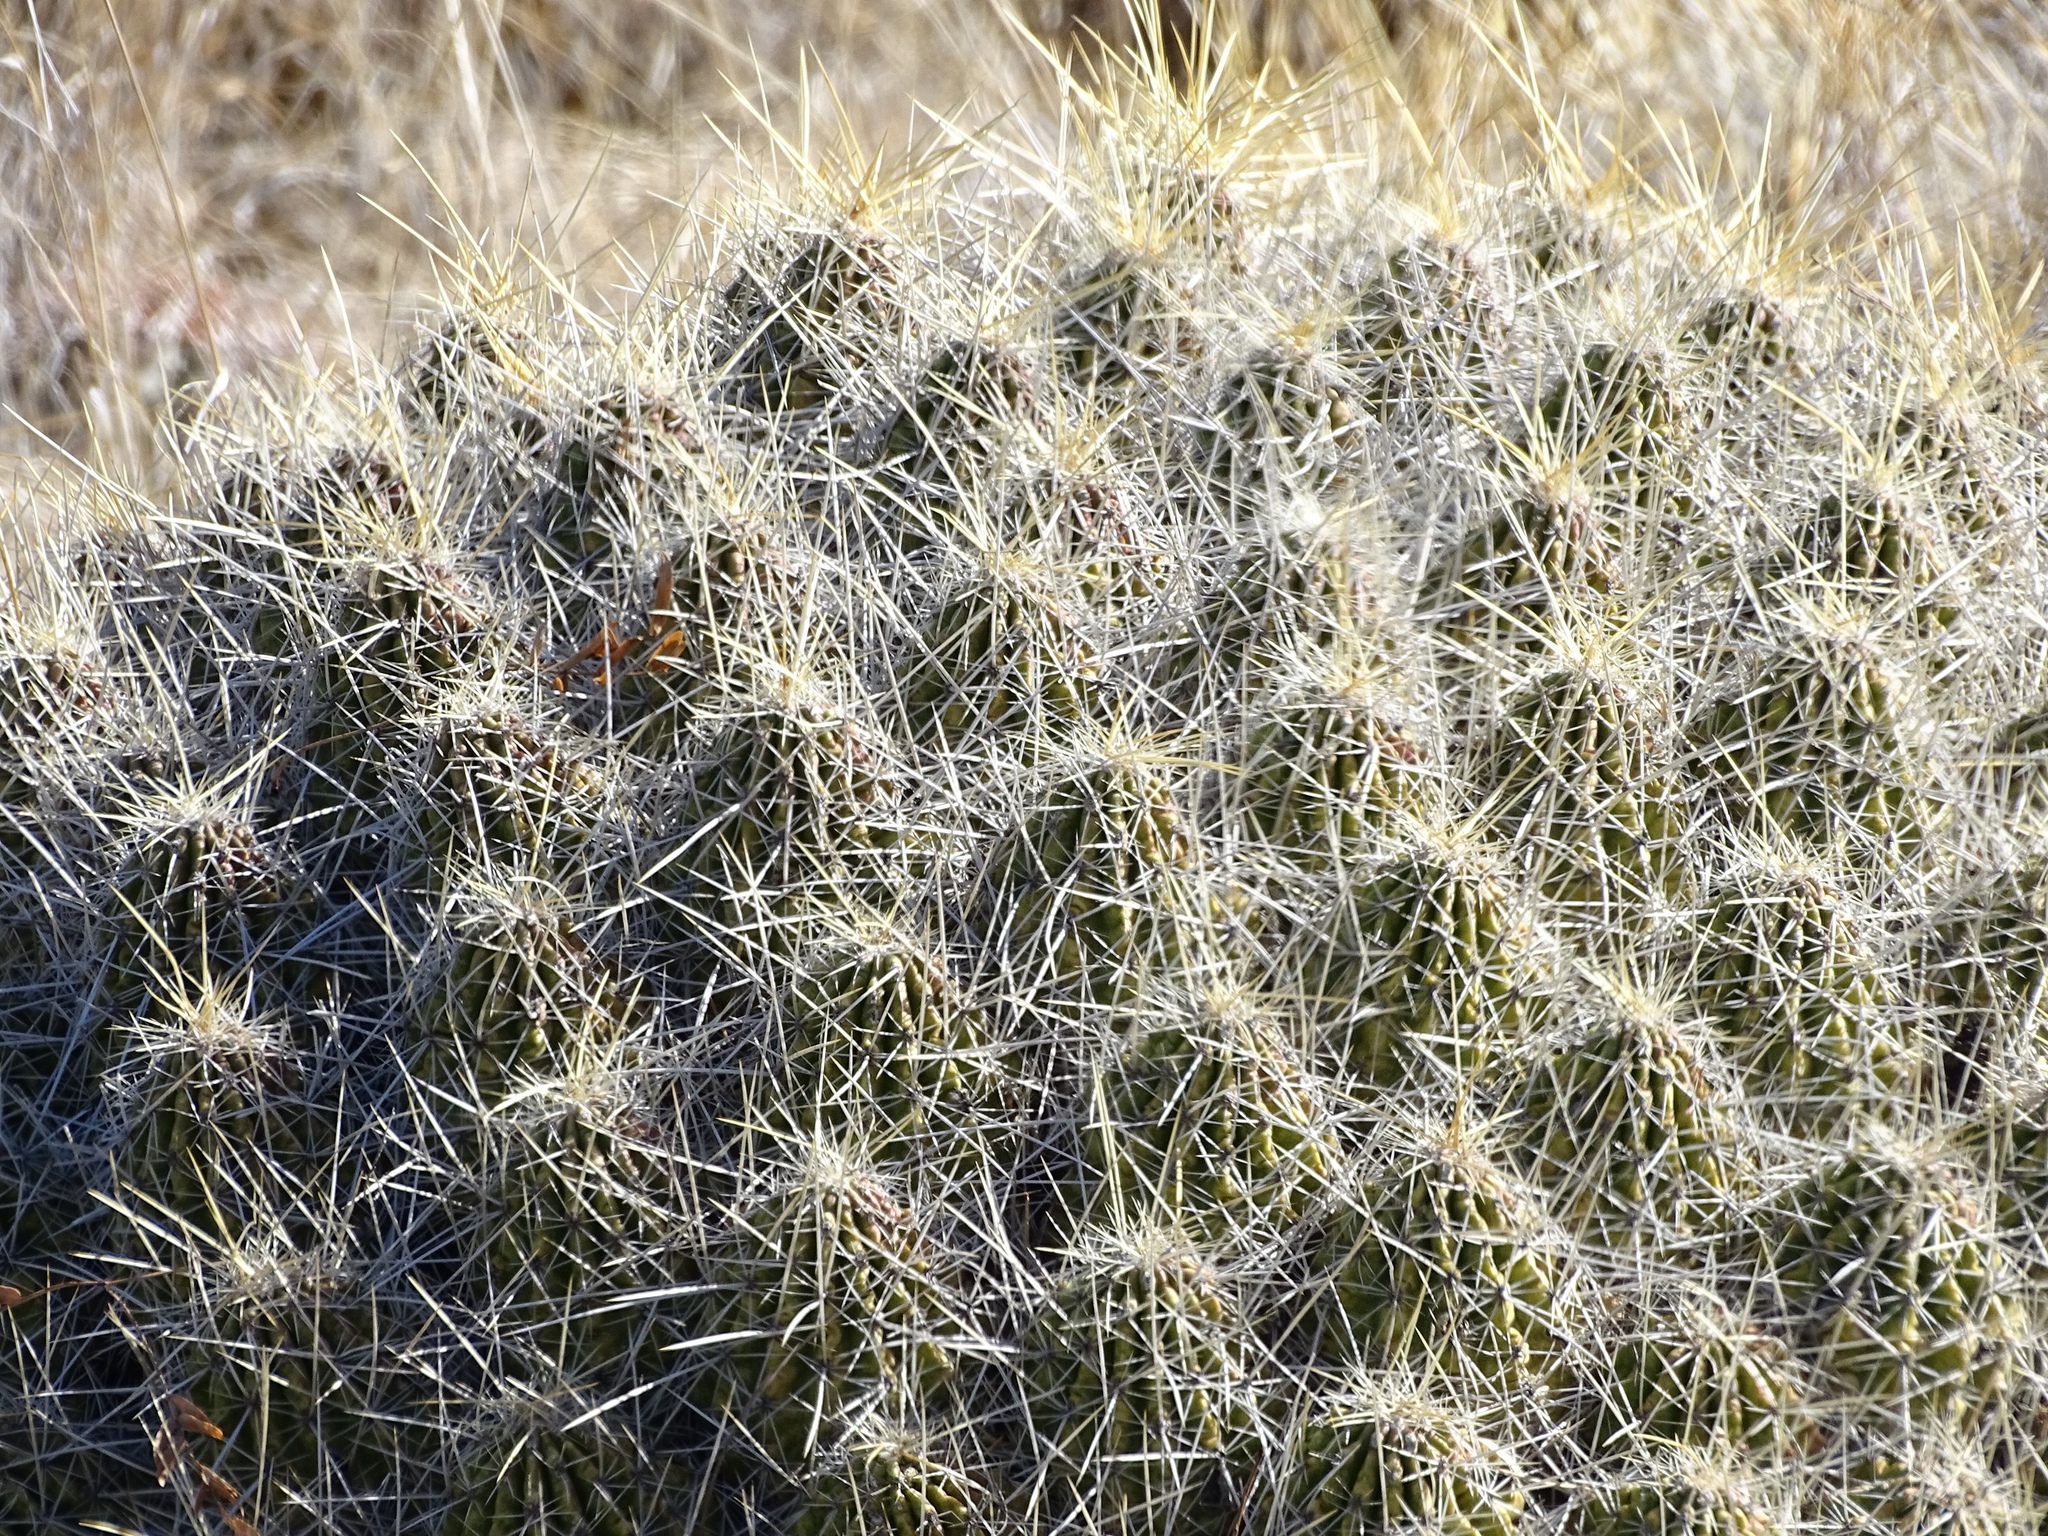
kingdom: Plantae
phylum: Tracheophyta
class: Magnoliopsida
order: Caryophyllales
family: Cactaceae
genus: Echinocereus
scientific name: Echinocereus stramineus
